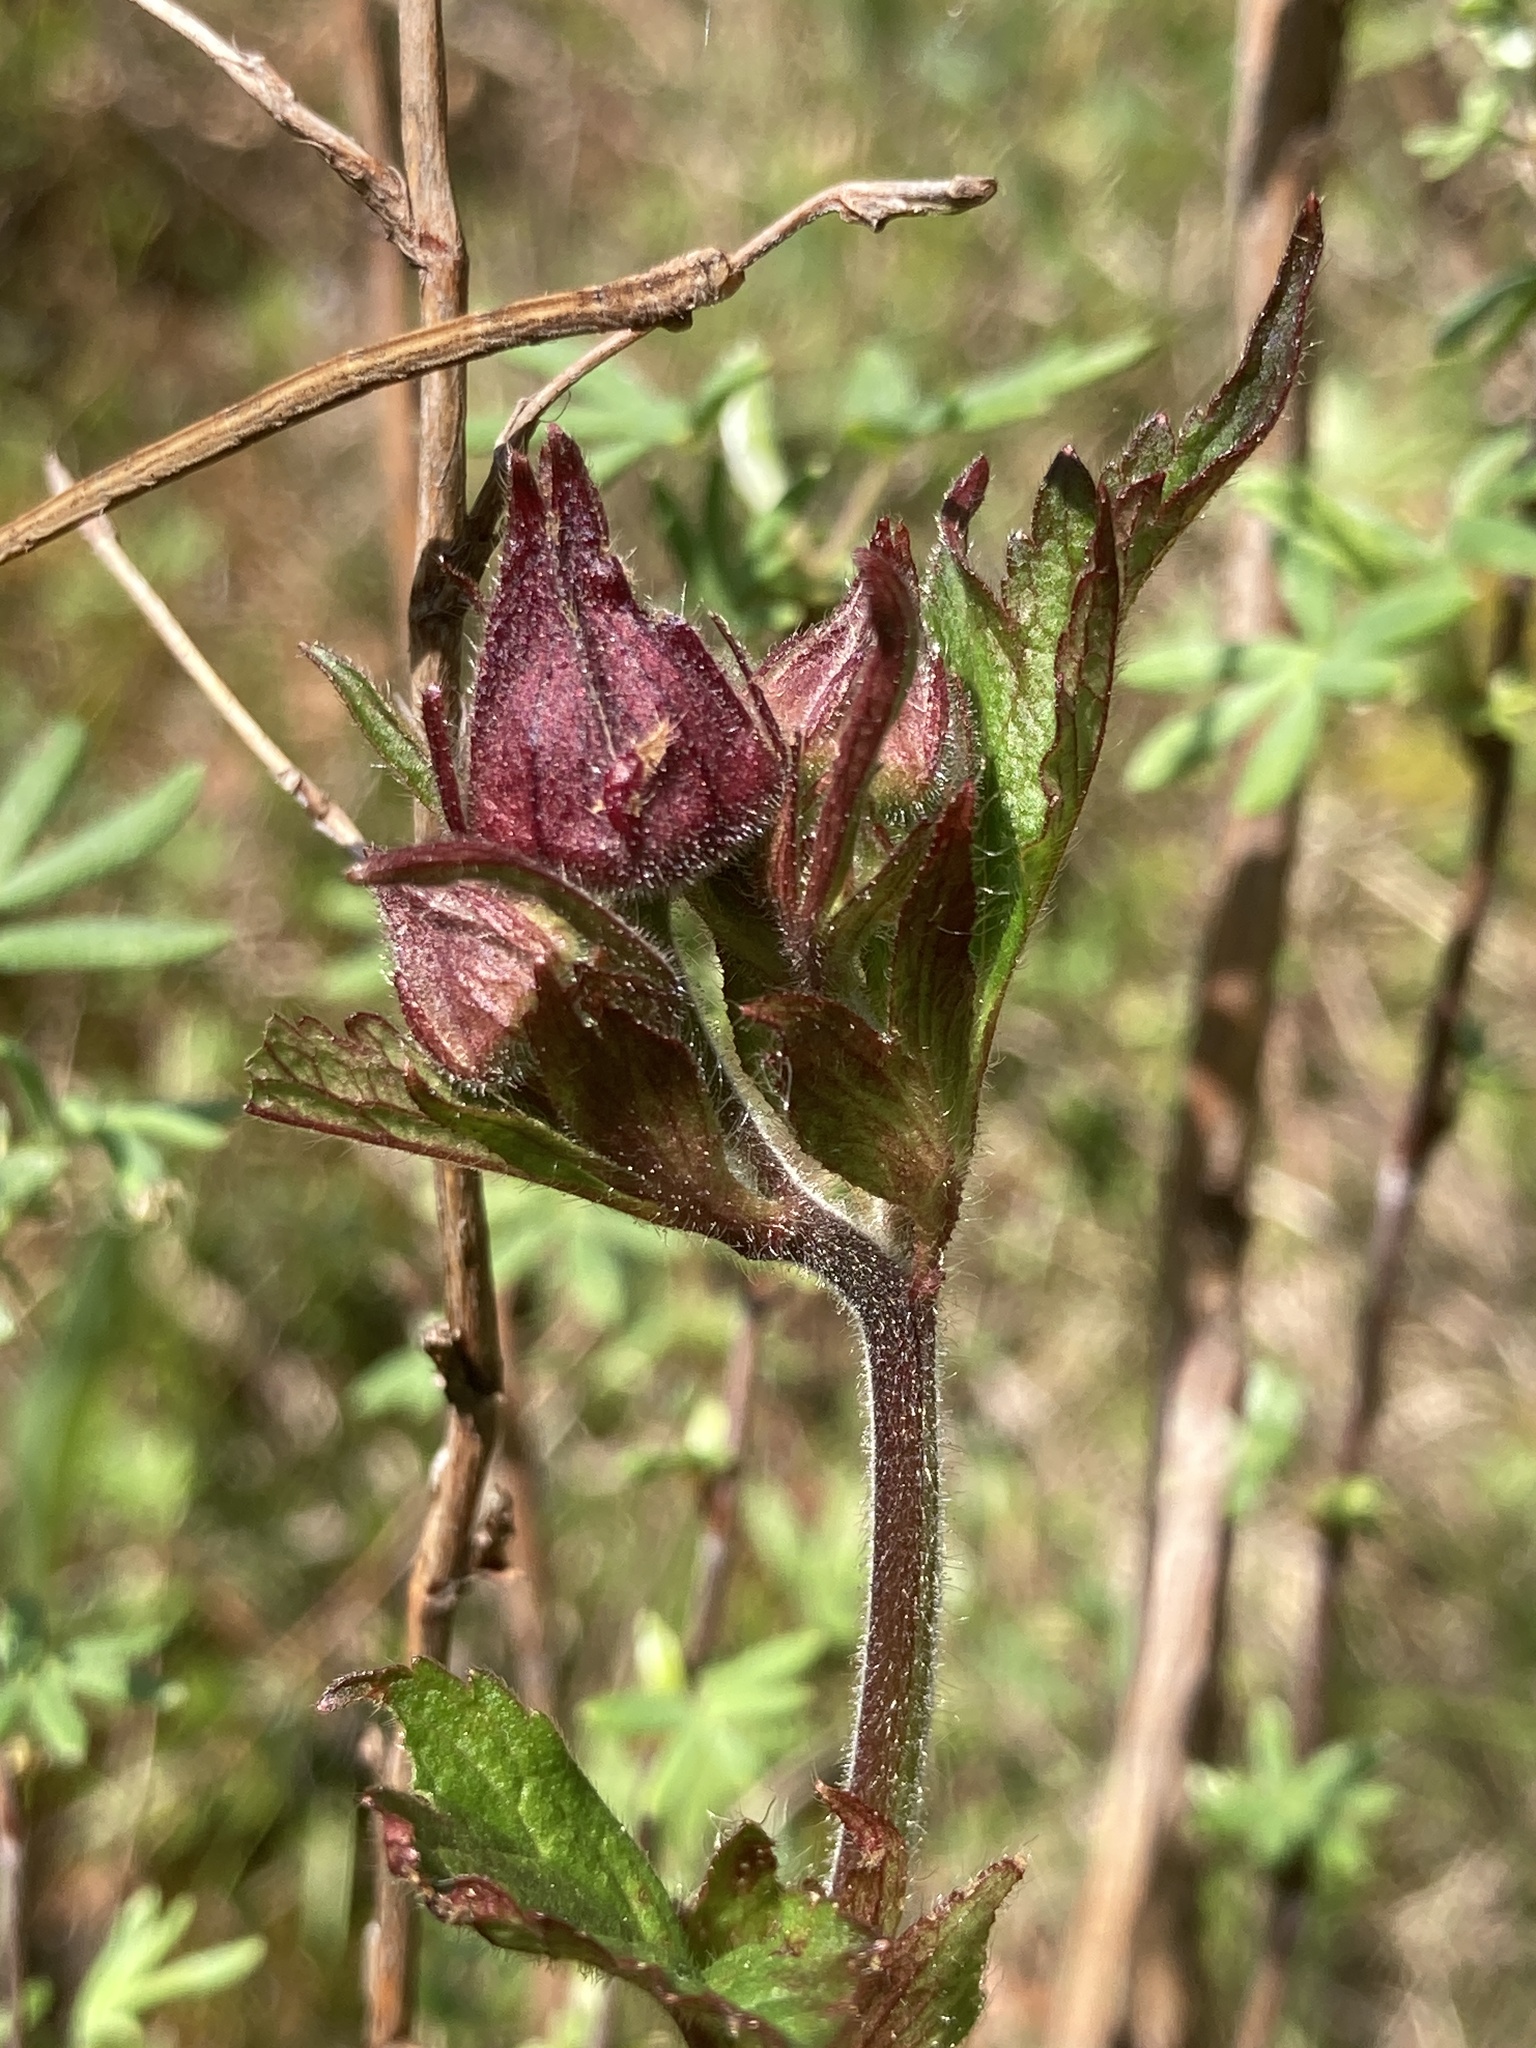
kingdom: Plantae
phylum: Tracheophyta
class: Magnoliopsida
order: Rosales
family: Rosaceae
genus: Geum
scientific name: Geum rivale
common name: Water avens
